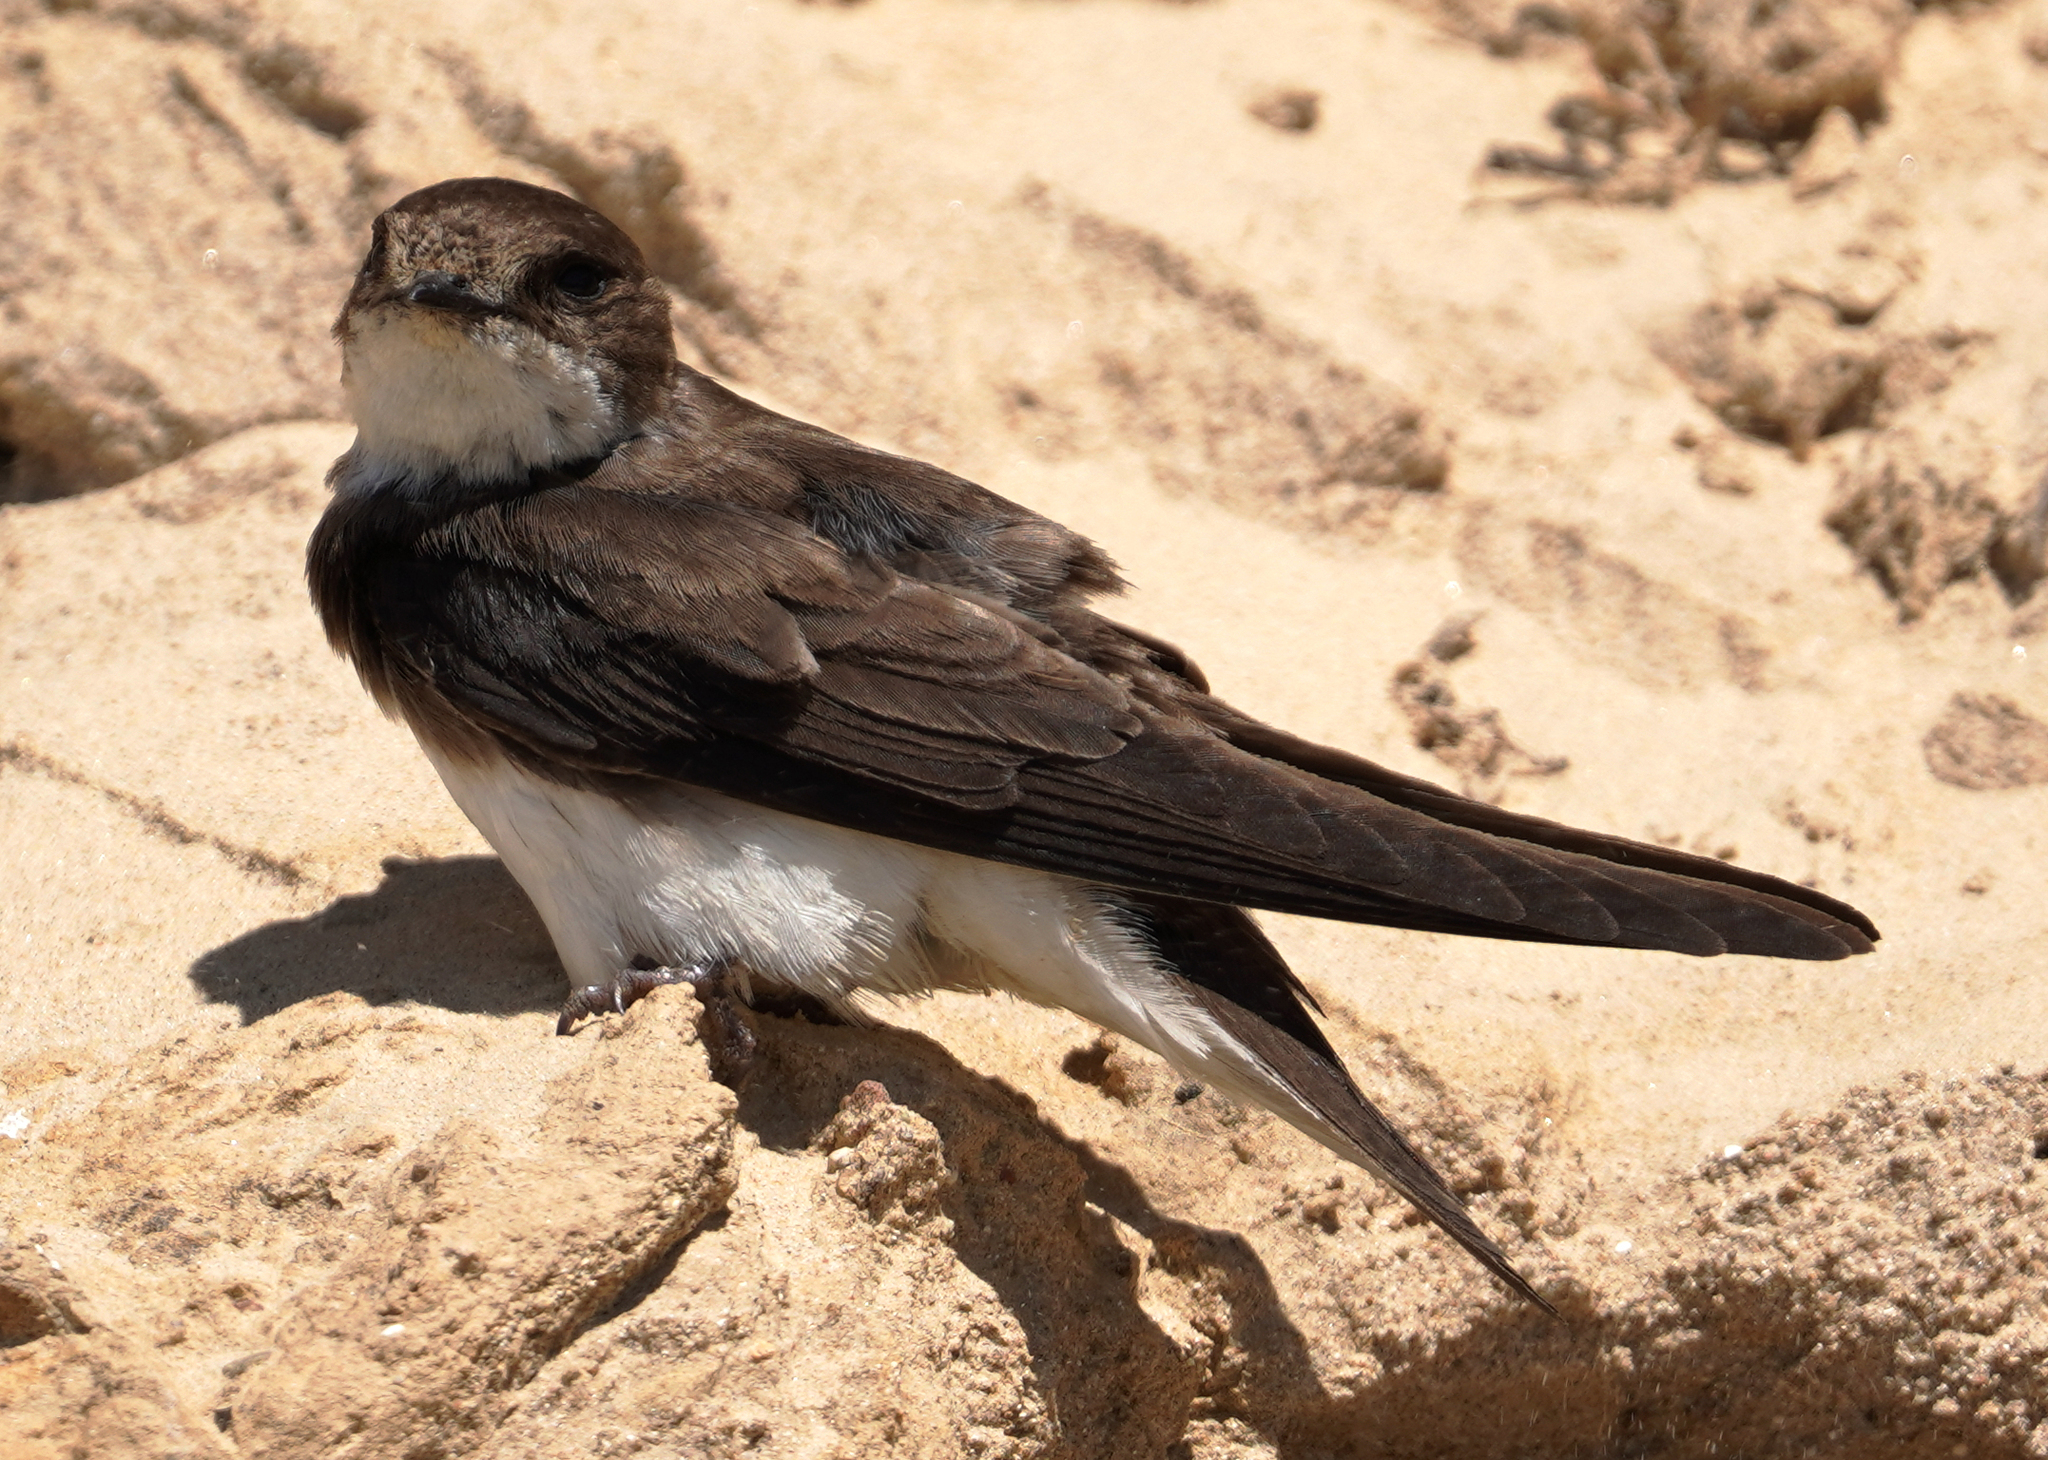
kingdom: Animalia
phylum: Chordata
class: Aves
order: Passeriformes
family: Hirundinidae
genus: Riparia
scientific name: Riparia riparia
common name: Sand martin
